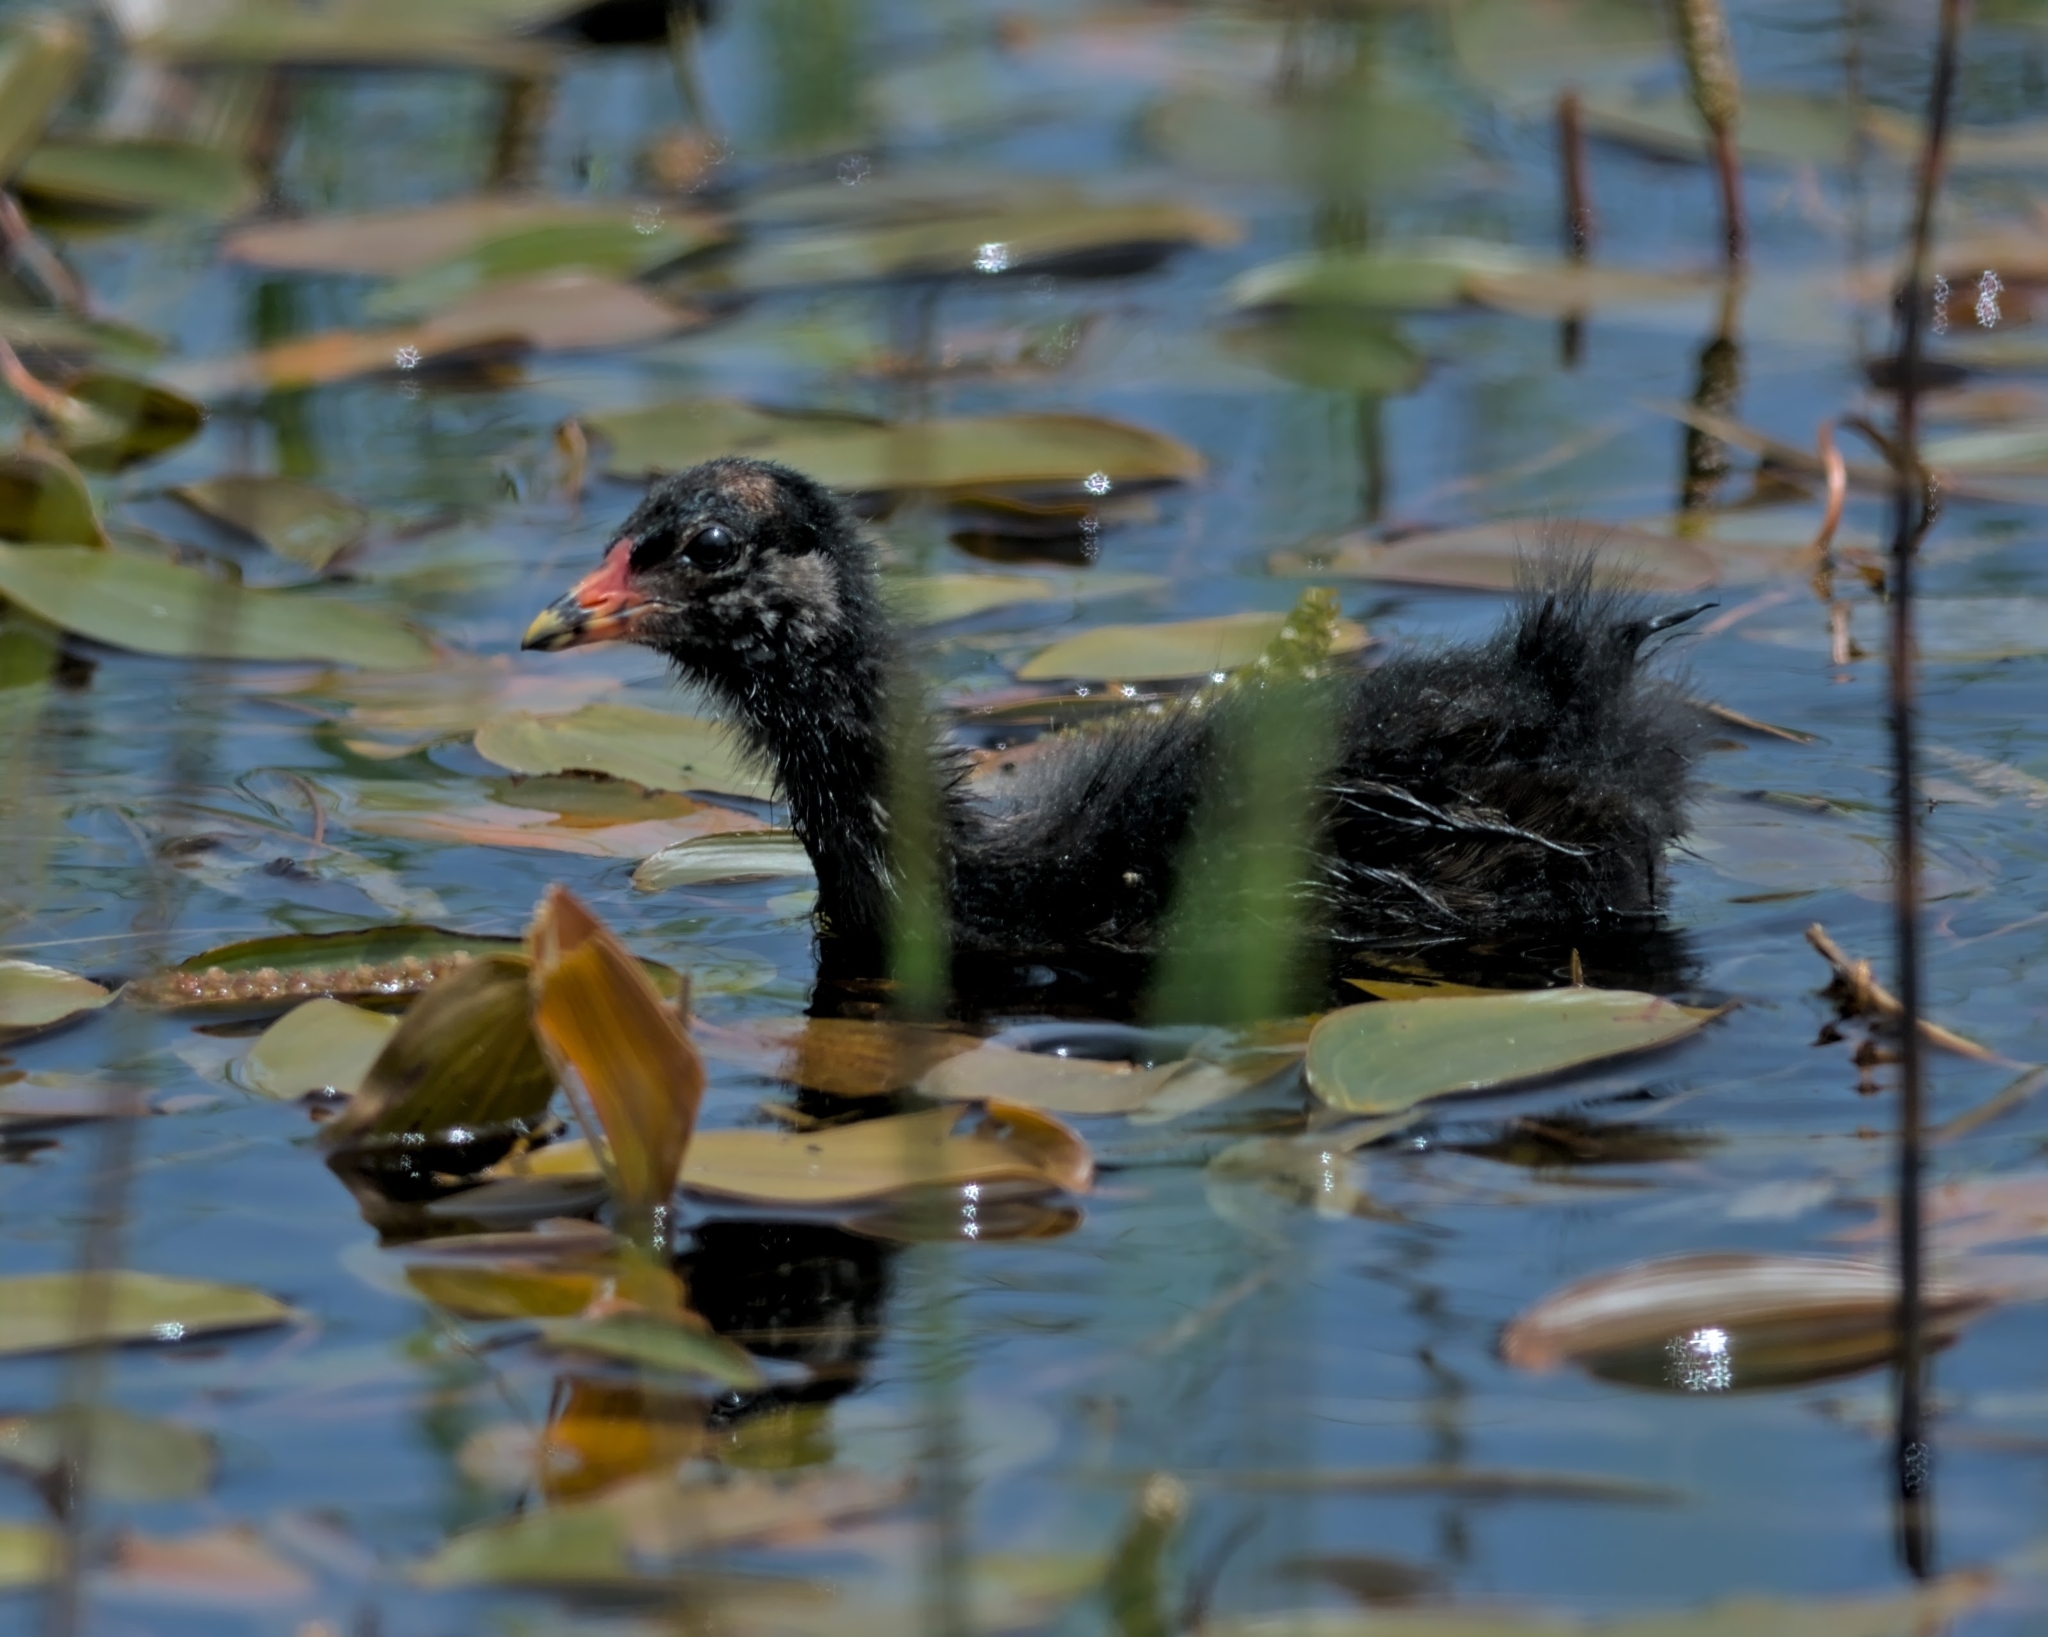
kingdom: Animalia
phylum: Chordata
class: Aves
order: Gruiformes
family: Rallidae
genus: Gallinula
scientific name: Gallinula chloropus
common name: Common moorhen
